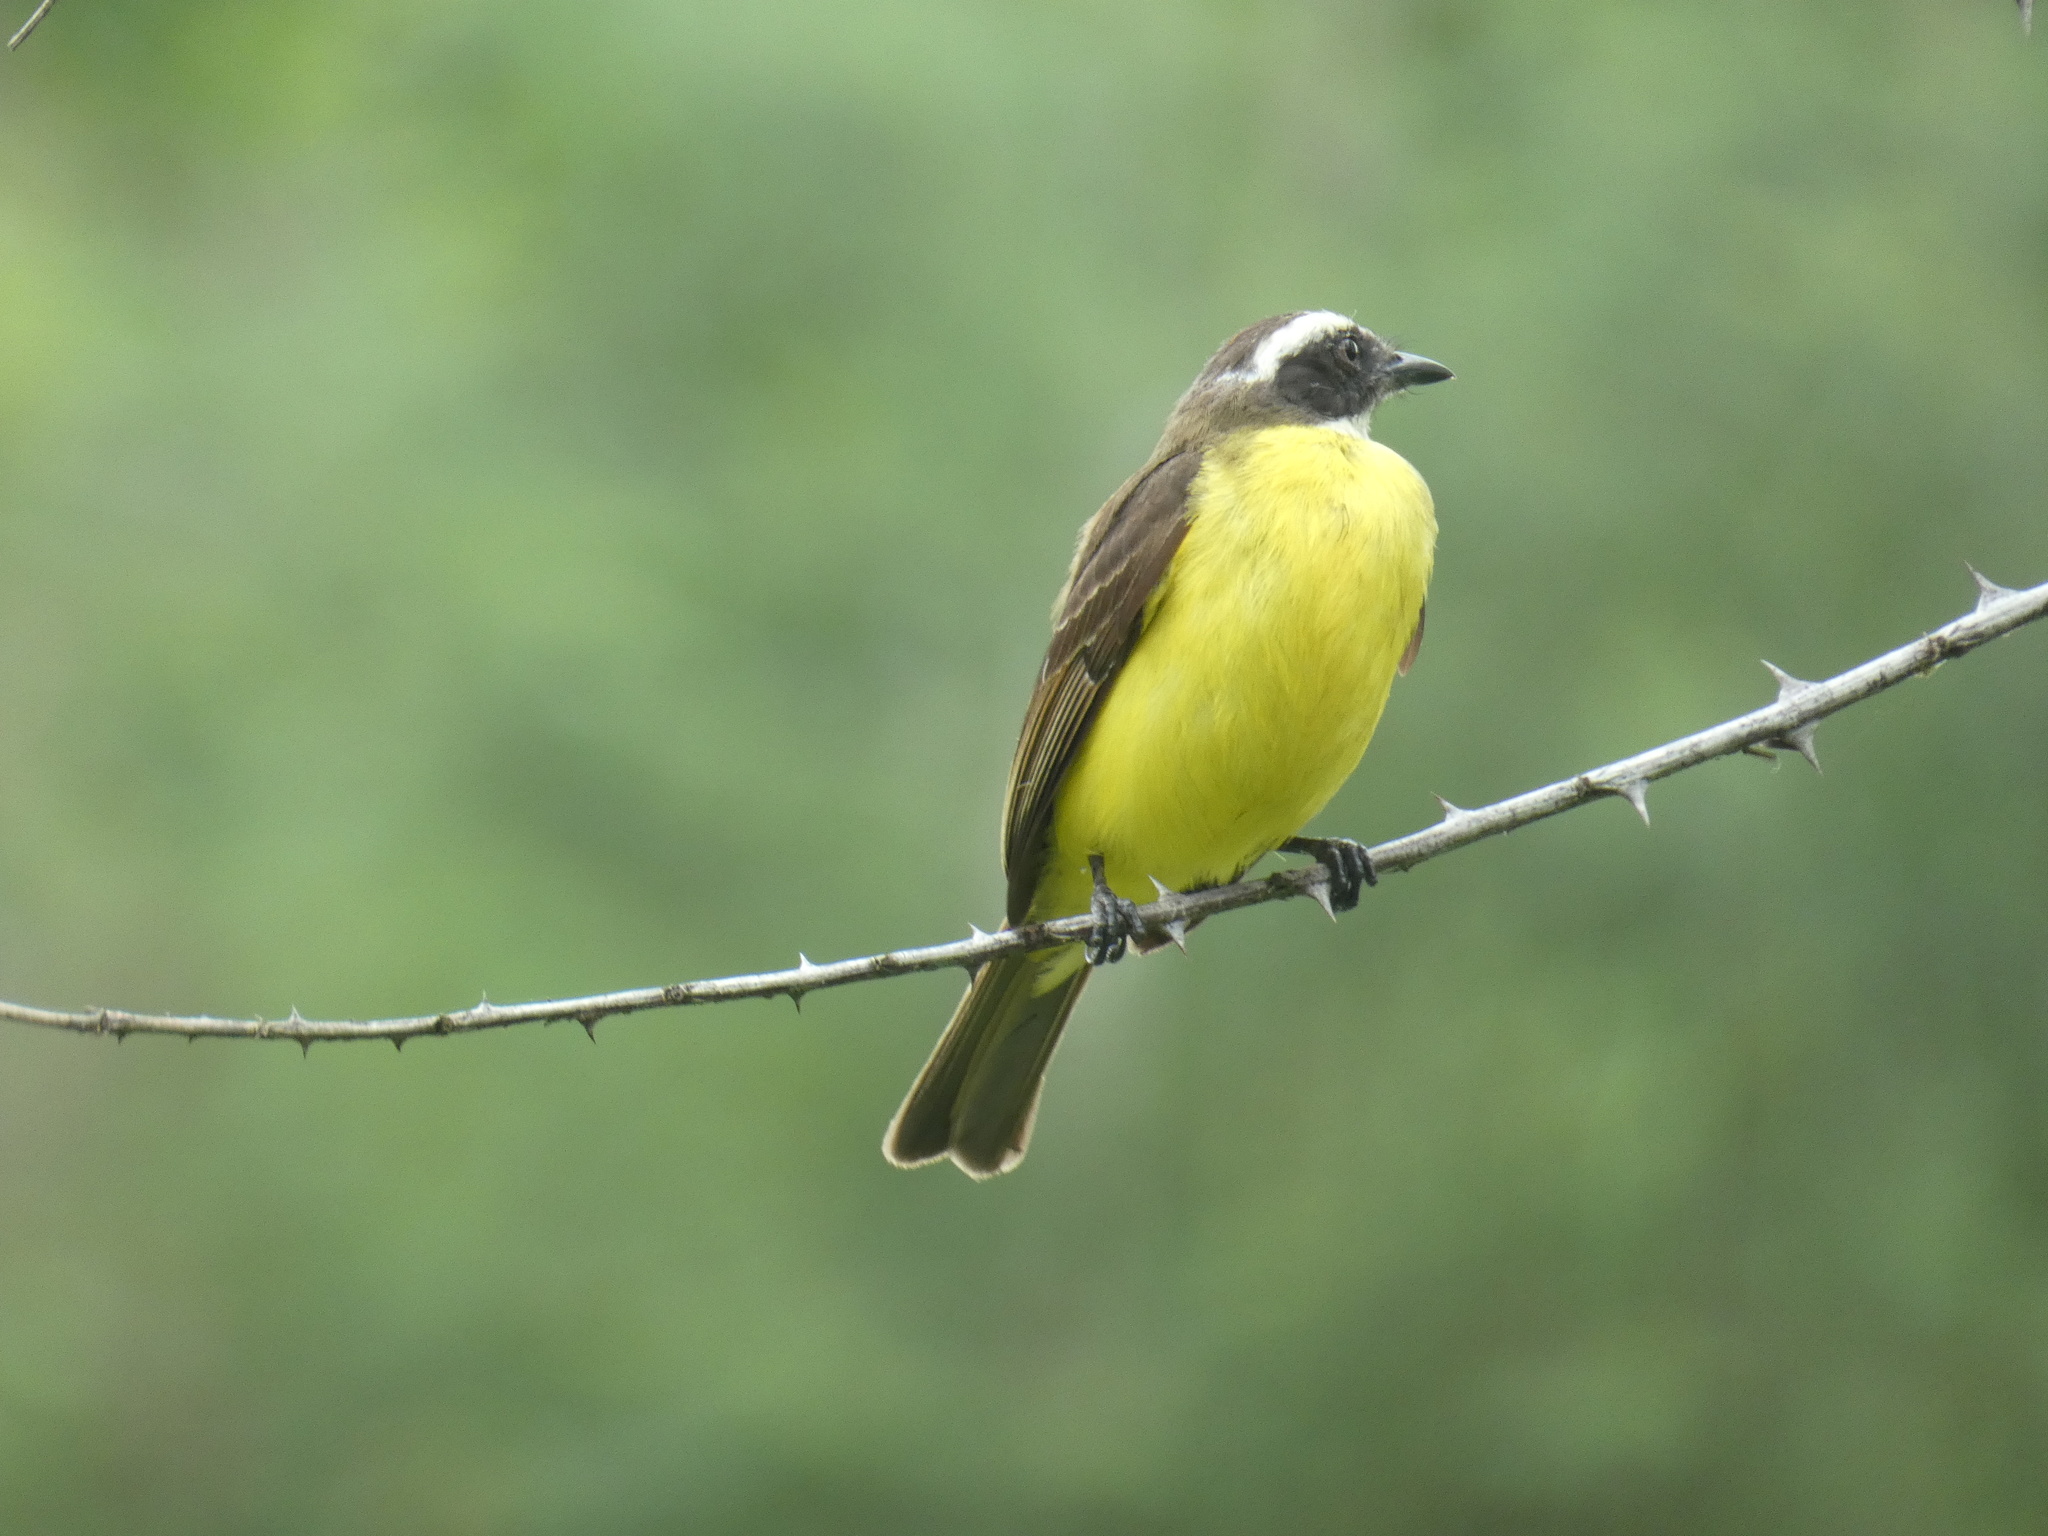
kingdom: Animalia
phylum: Chordata
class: Aves
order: Passeriformes
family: Tyrannidae
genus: Myiozetetes
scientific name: Myiozetetes similis
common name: Social flycatcher
